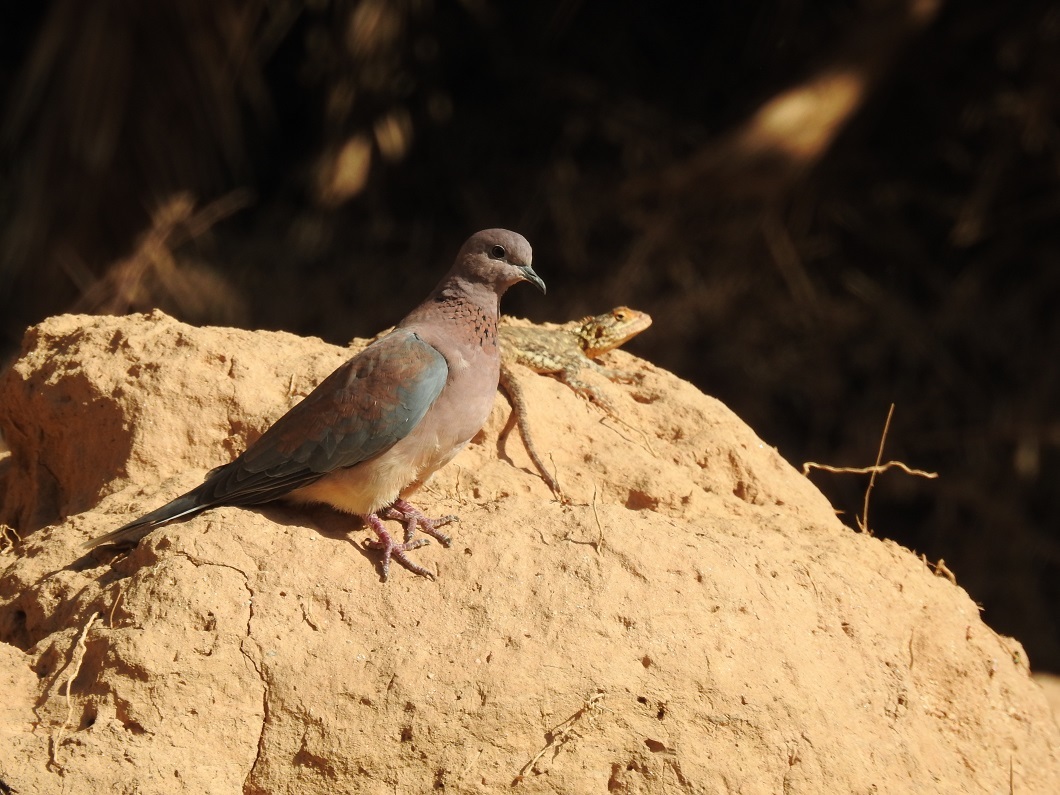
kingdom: Animalia
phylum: Chordata
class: Aves
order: Columbiformes
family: Columbidae
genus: Spilopelia
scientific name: Spilopelia senegalensis
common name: Laughing dove
